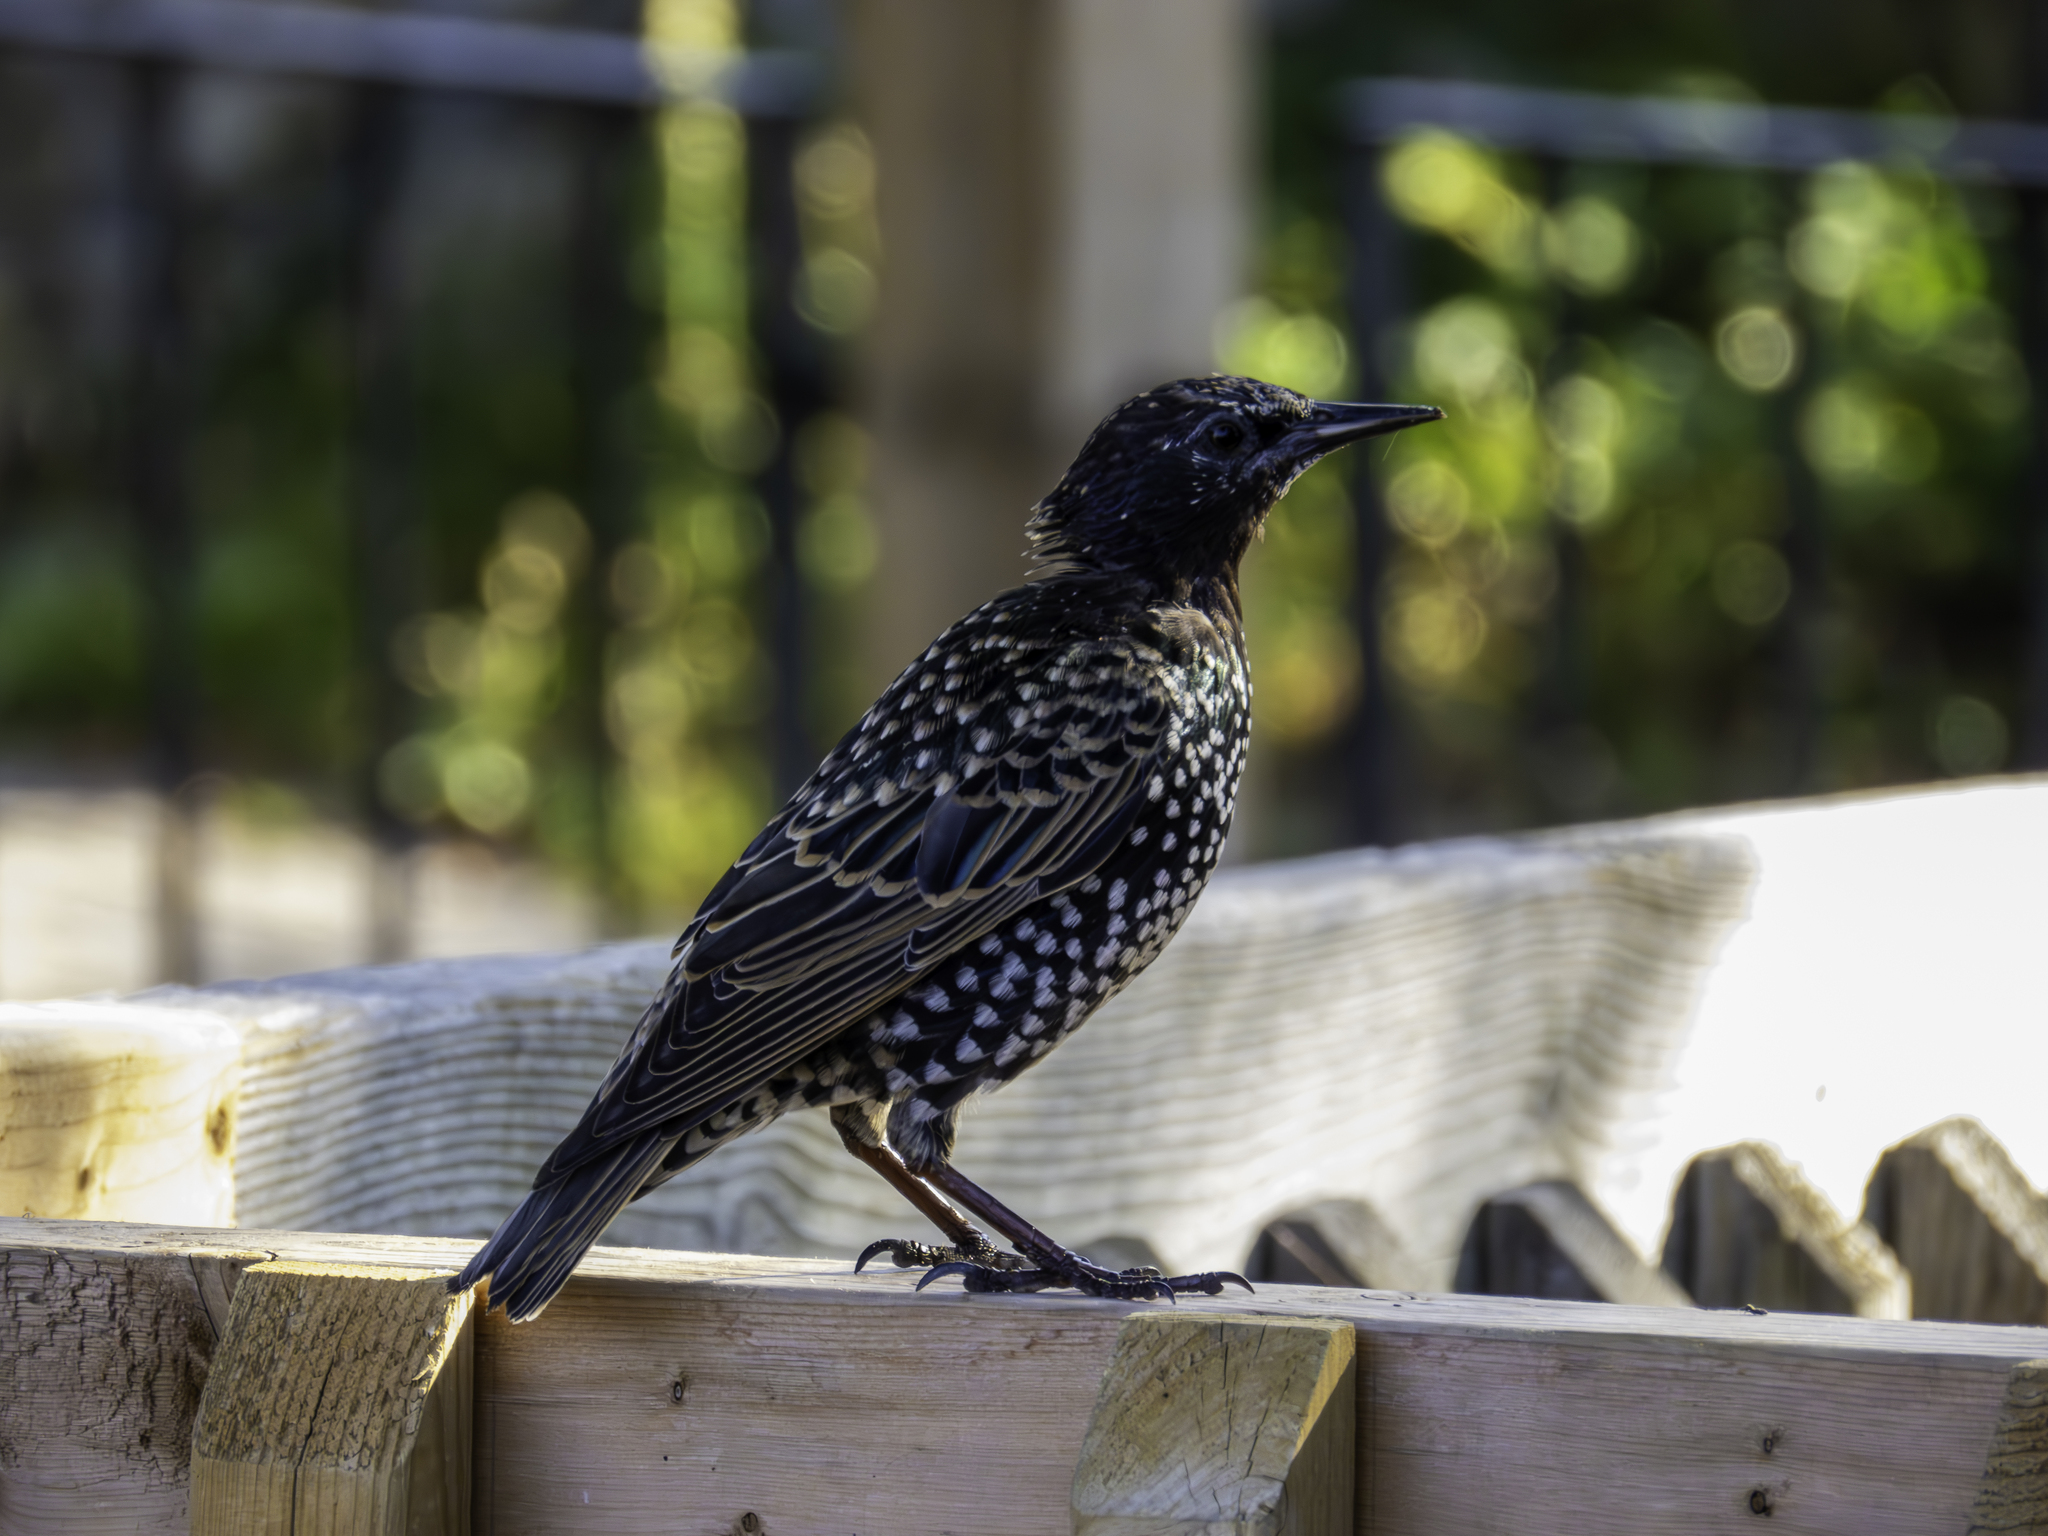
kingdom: Animalia
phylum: Chordata
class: Aves
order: Passeriformes
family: Sturnidae
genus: Sturnus
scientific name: Sturnus vulgaris
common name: Common starling
